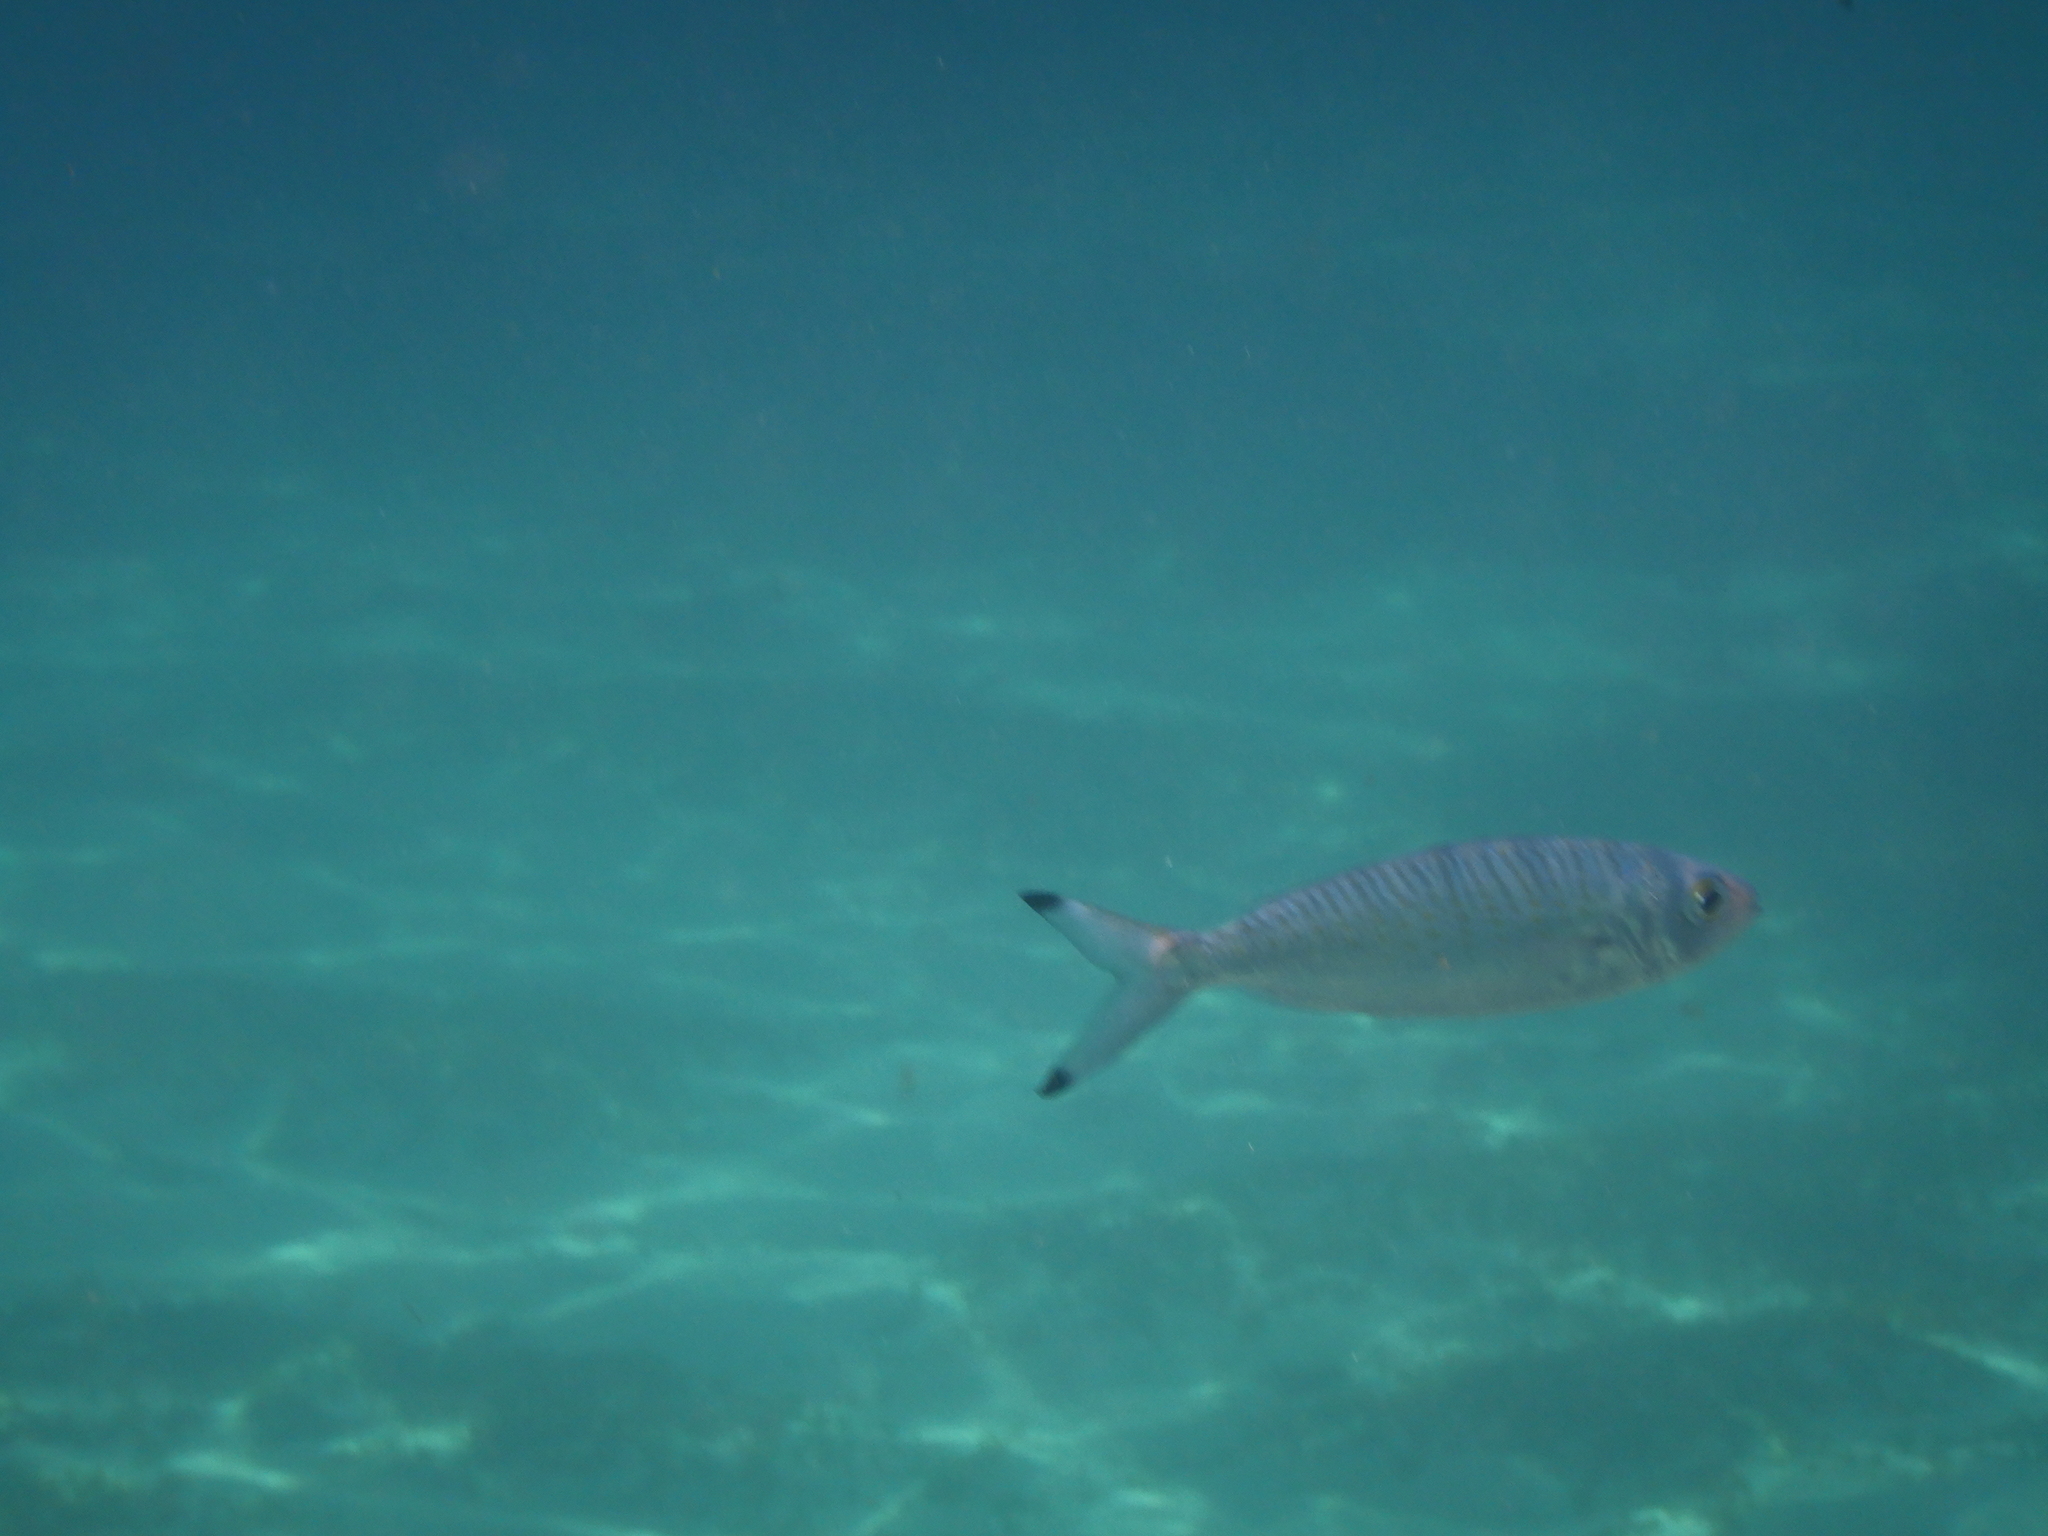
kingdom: Animalia
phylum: Chordata
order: Perciformes
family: Arripidae
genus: Arripis
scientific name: Arripis georgianus
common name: Australian herring
